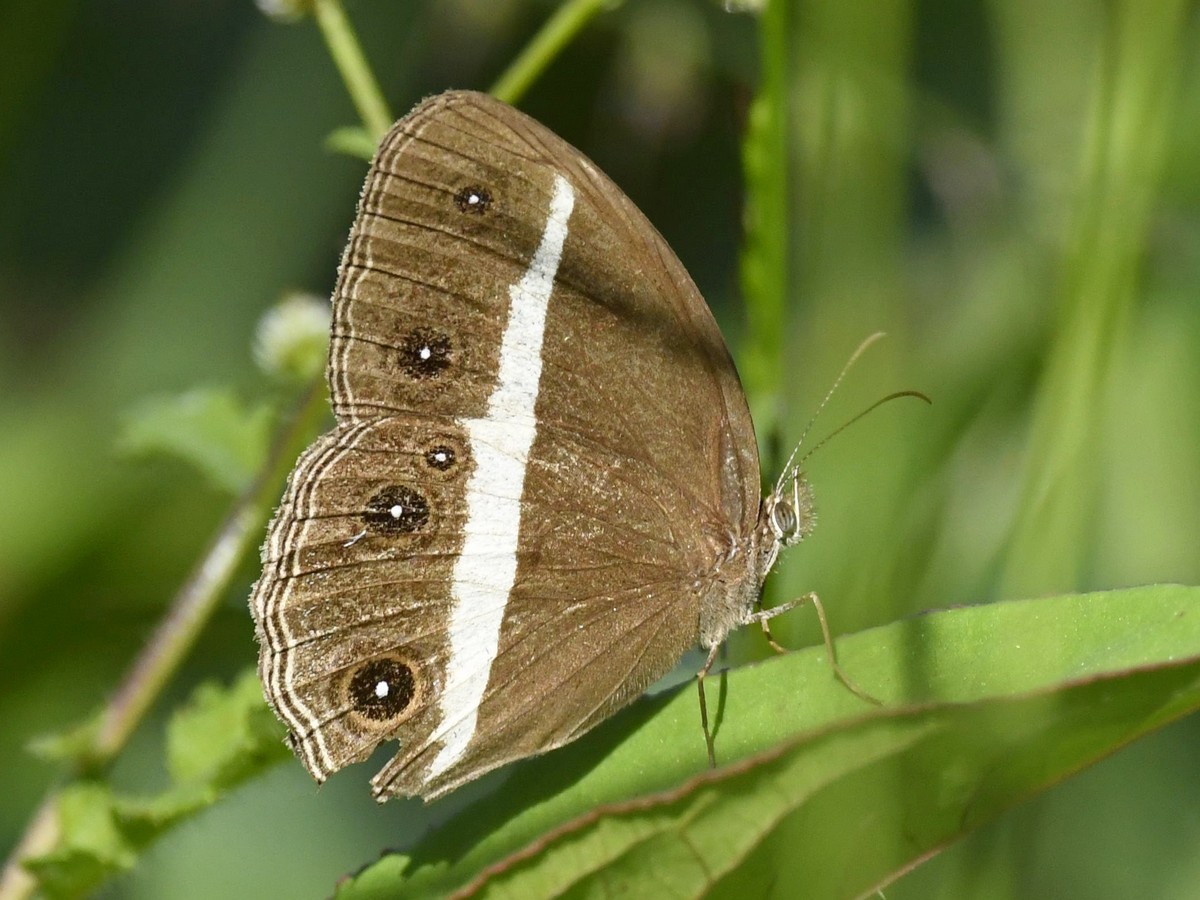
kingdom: Animalia
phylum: Arthropoda
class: Insecta
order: Lepidoptera
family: Nymphalidae
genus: Orsotriaena
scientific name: Orsotriaena medus
